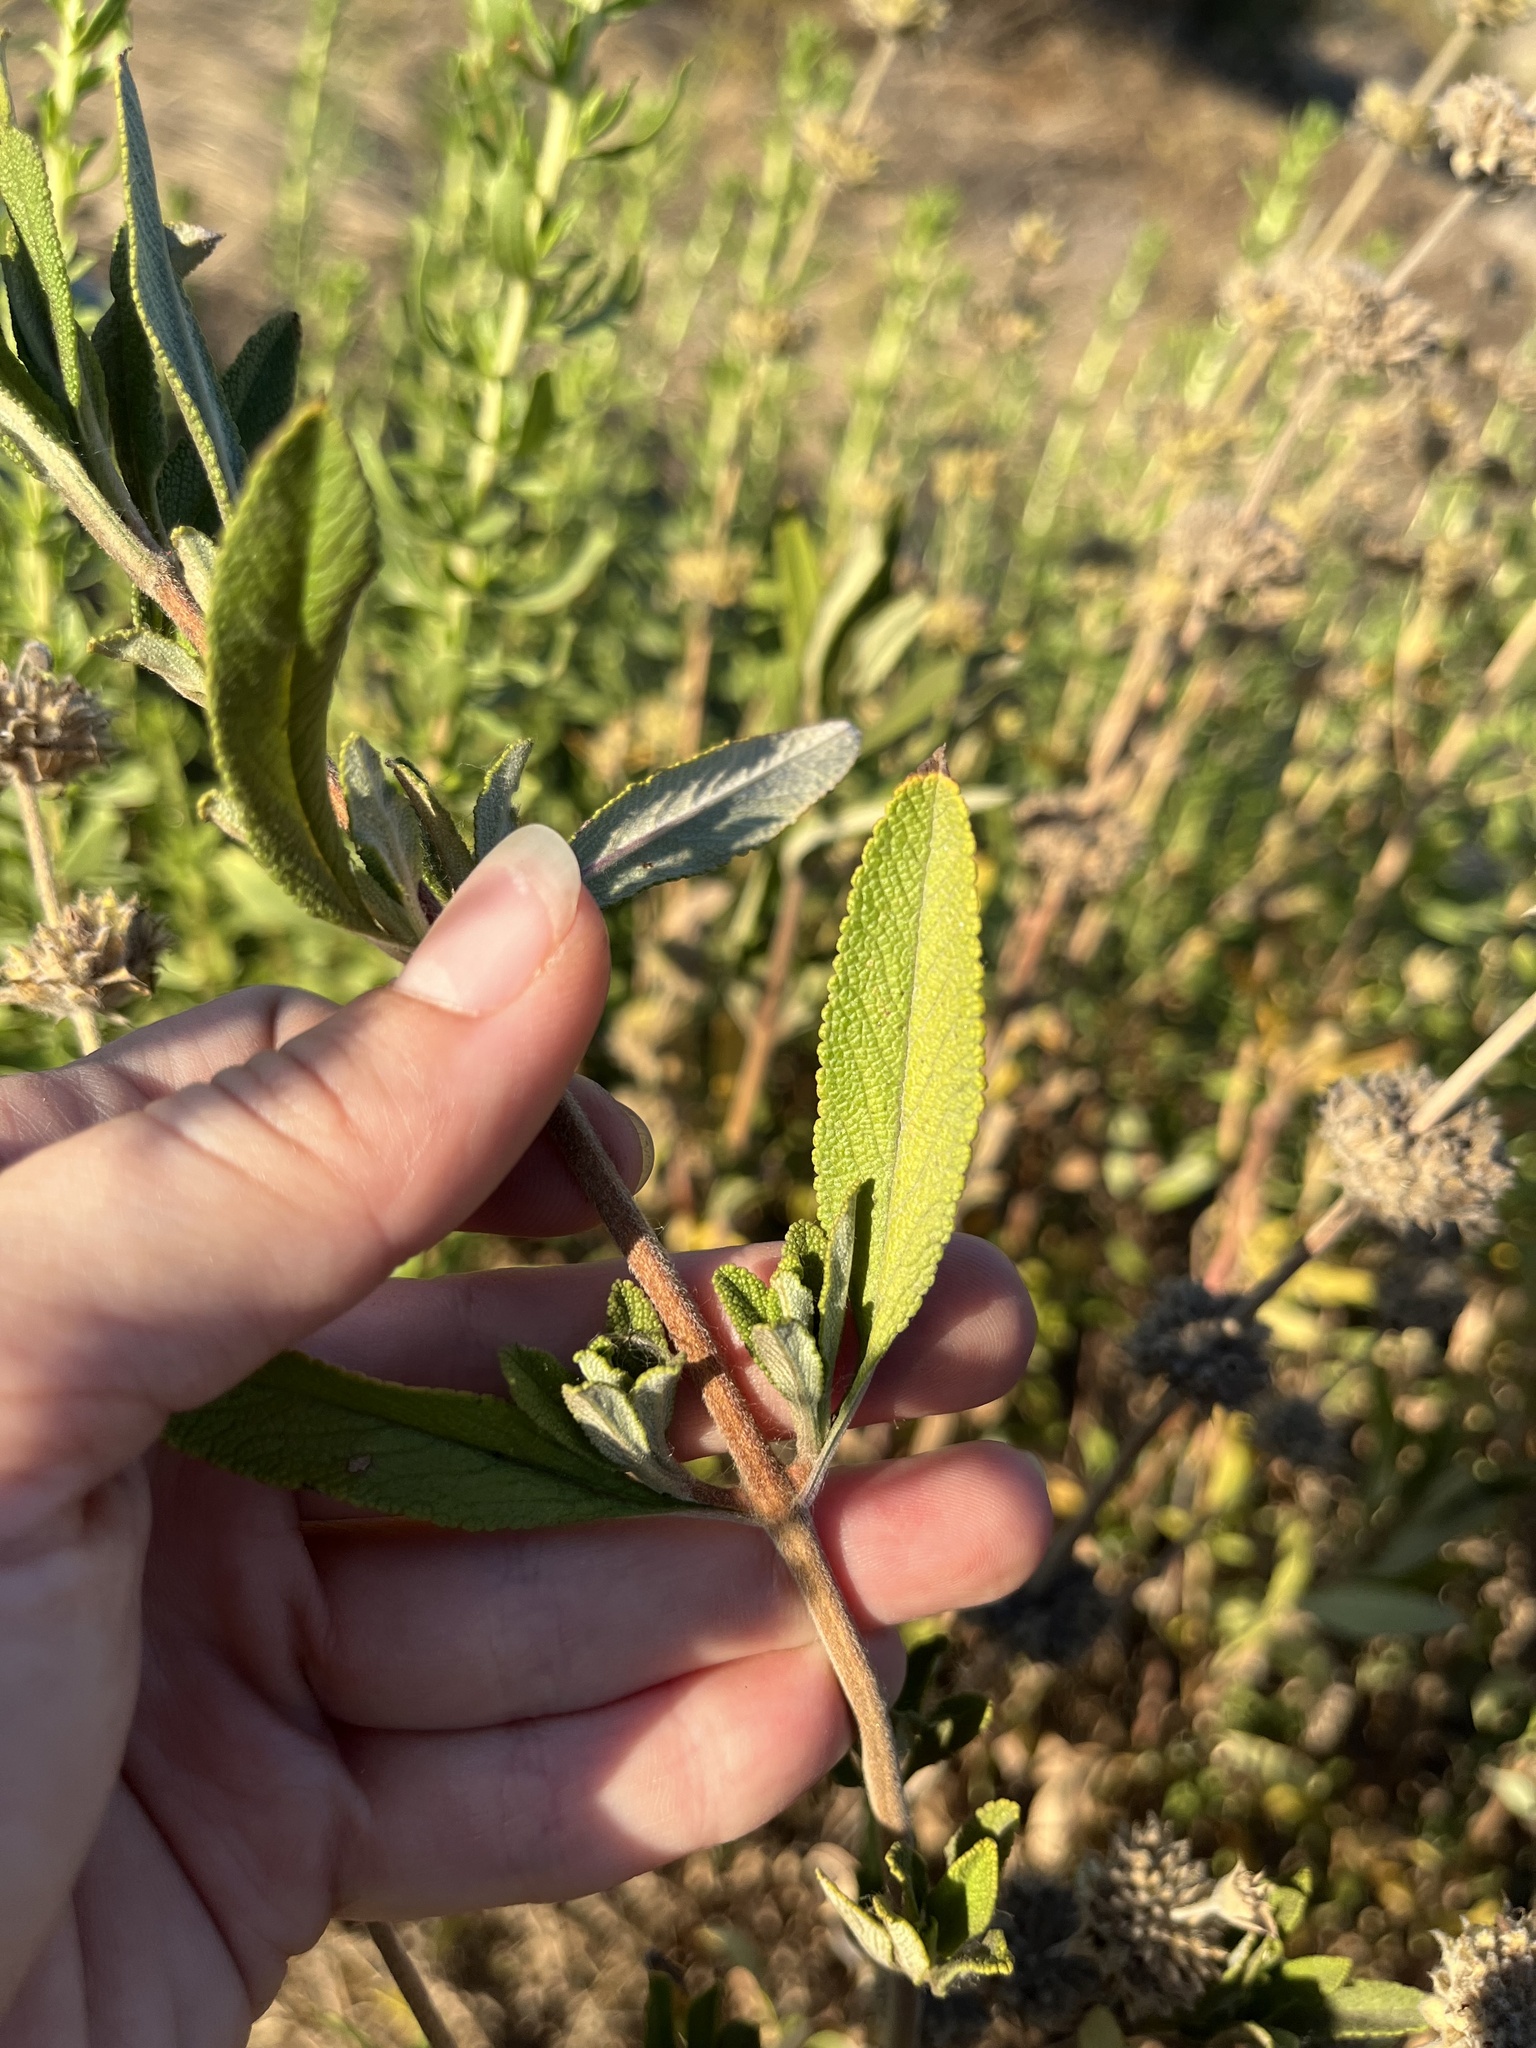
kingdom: Plantae
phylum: Tracheophyta
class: Magnoliopsida
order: Lamiales
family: Lamiaceae
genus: Salvia
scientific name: Salvia mellifera
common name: Black sage
